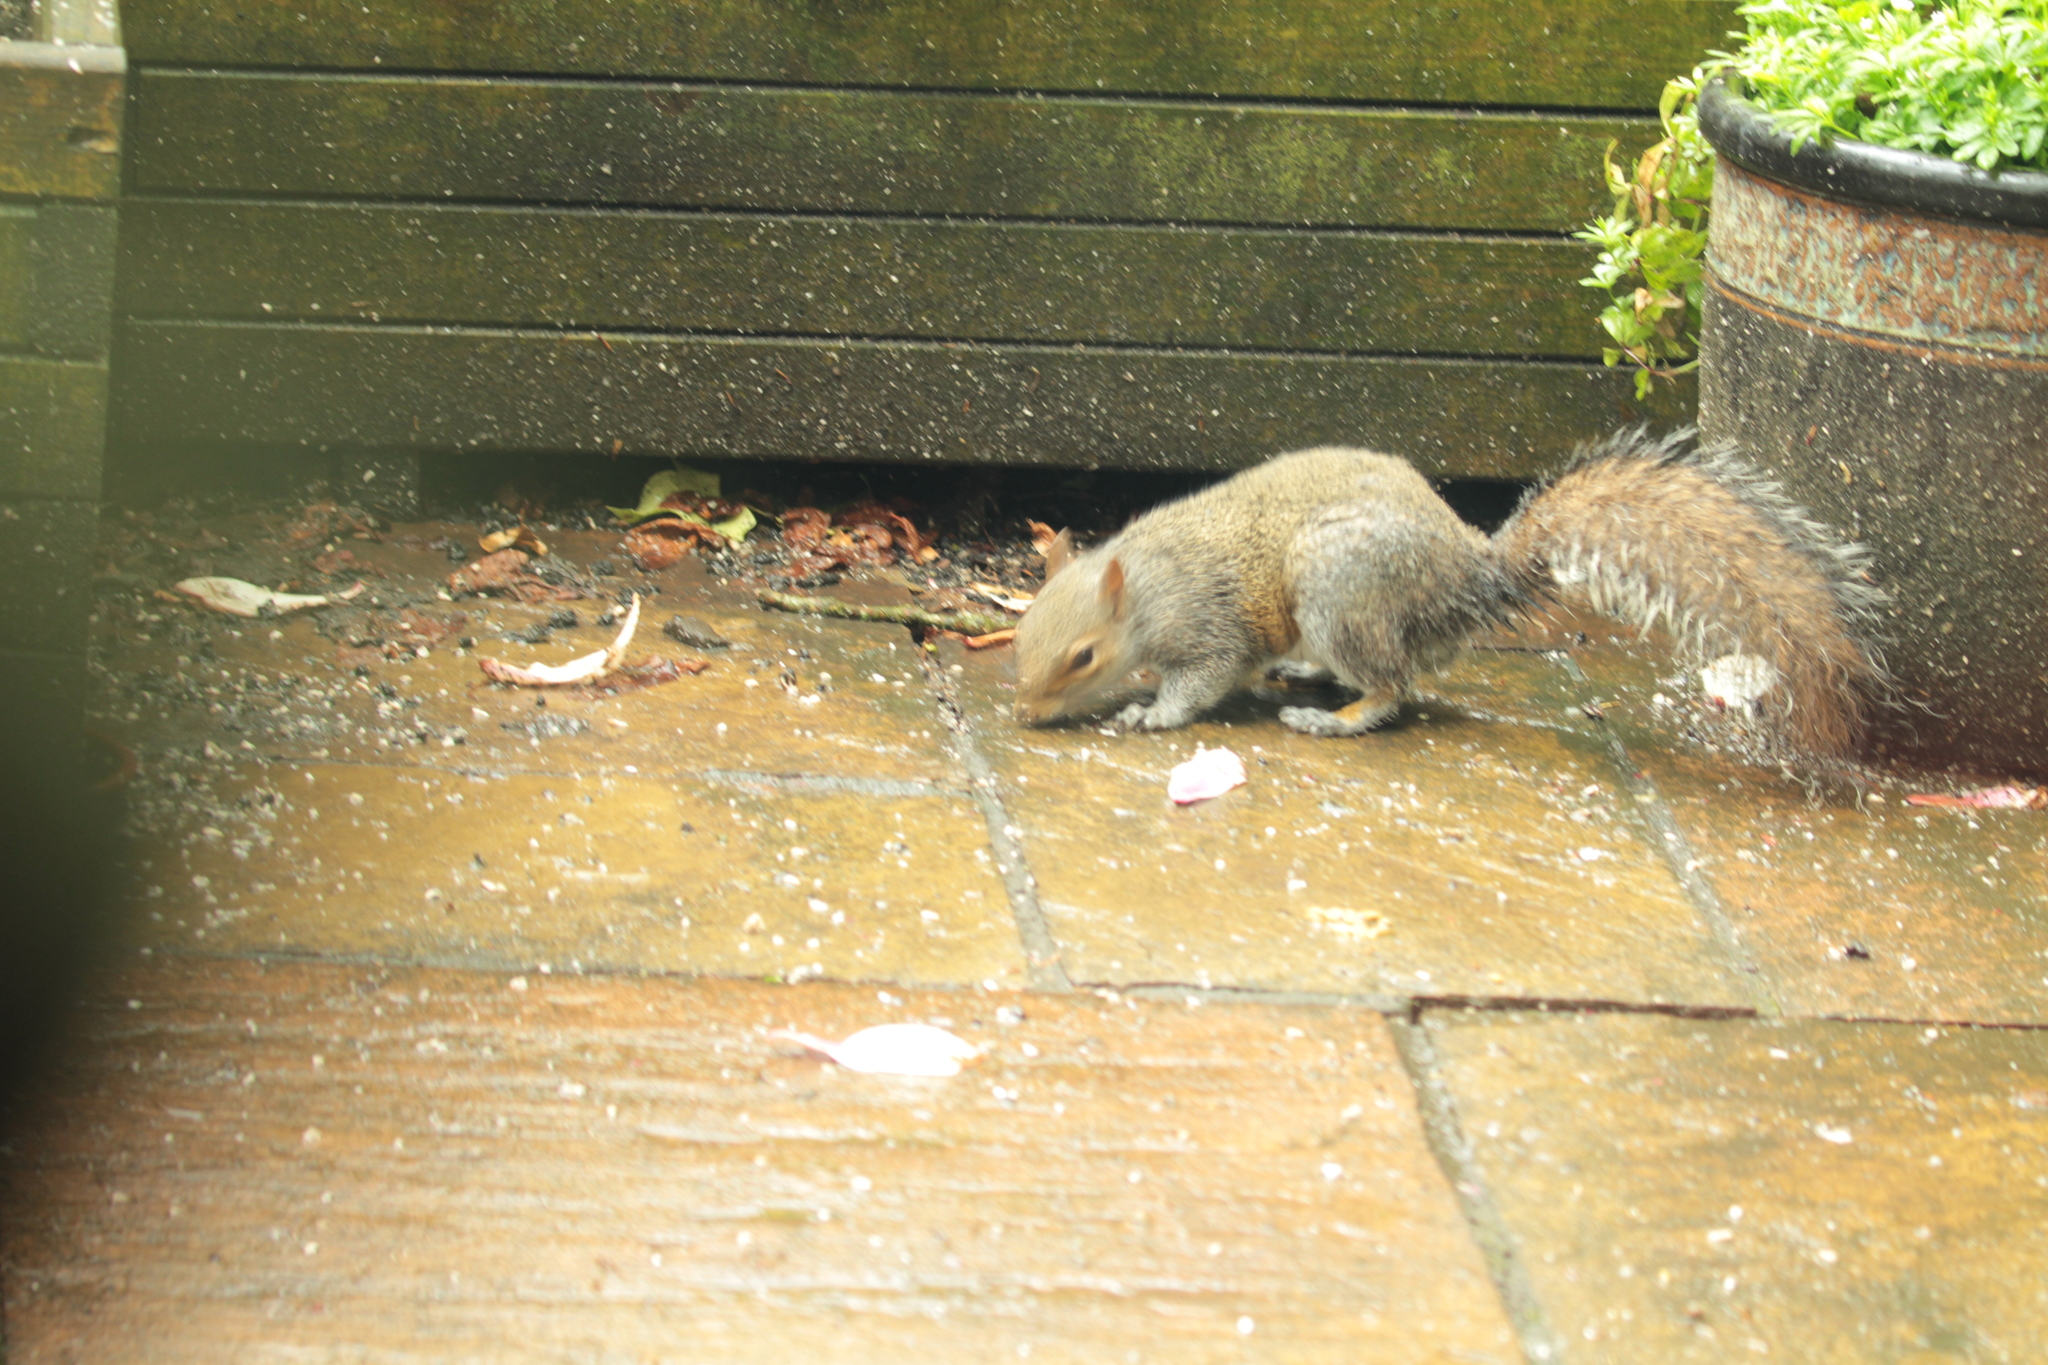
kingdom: Animalia
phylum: Chordata
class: Mammalia
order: Rodentia
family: Sciuridae
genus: Sciurus
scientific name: Sciurus carolinensis
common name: Eastern gray squirrel
